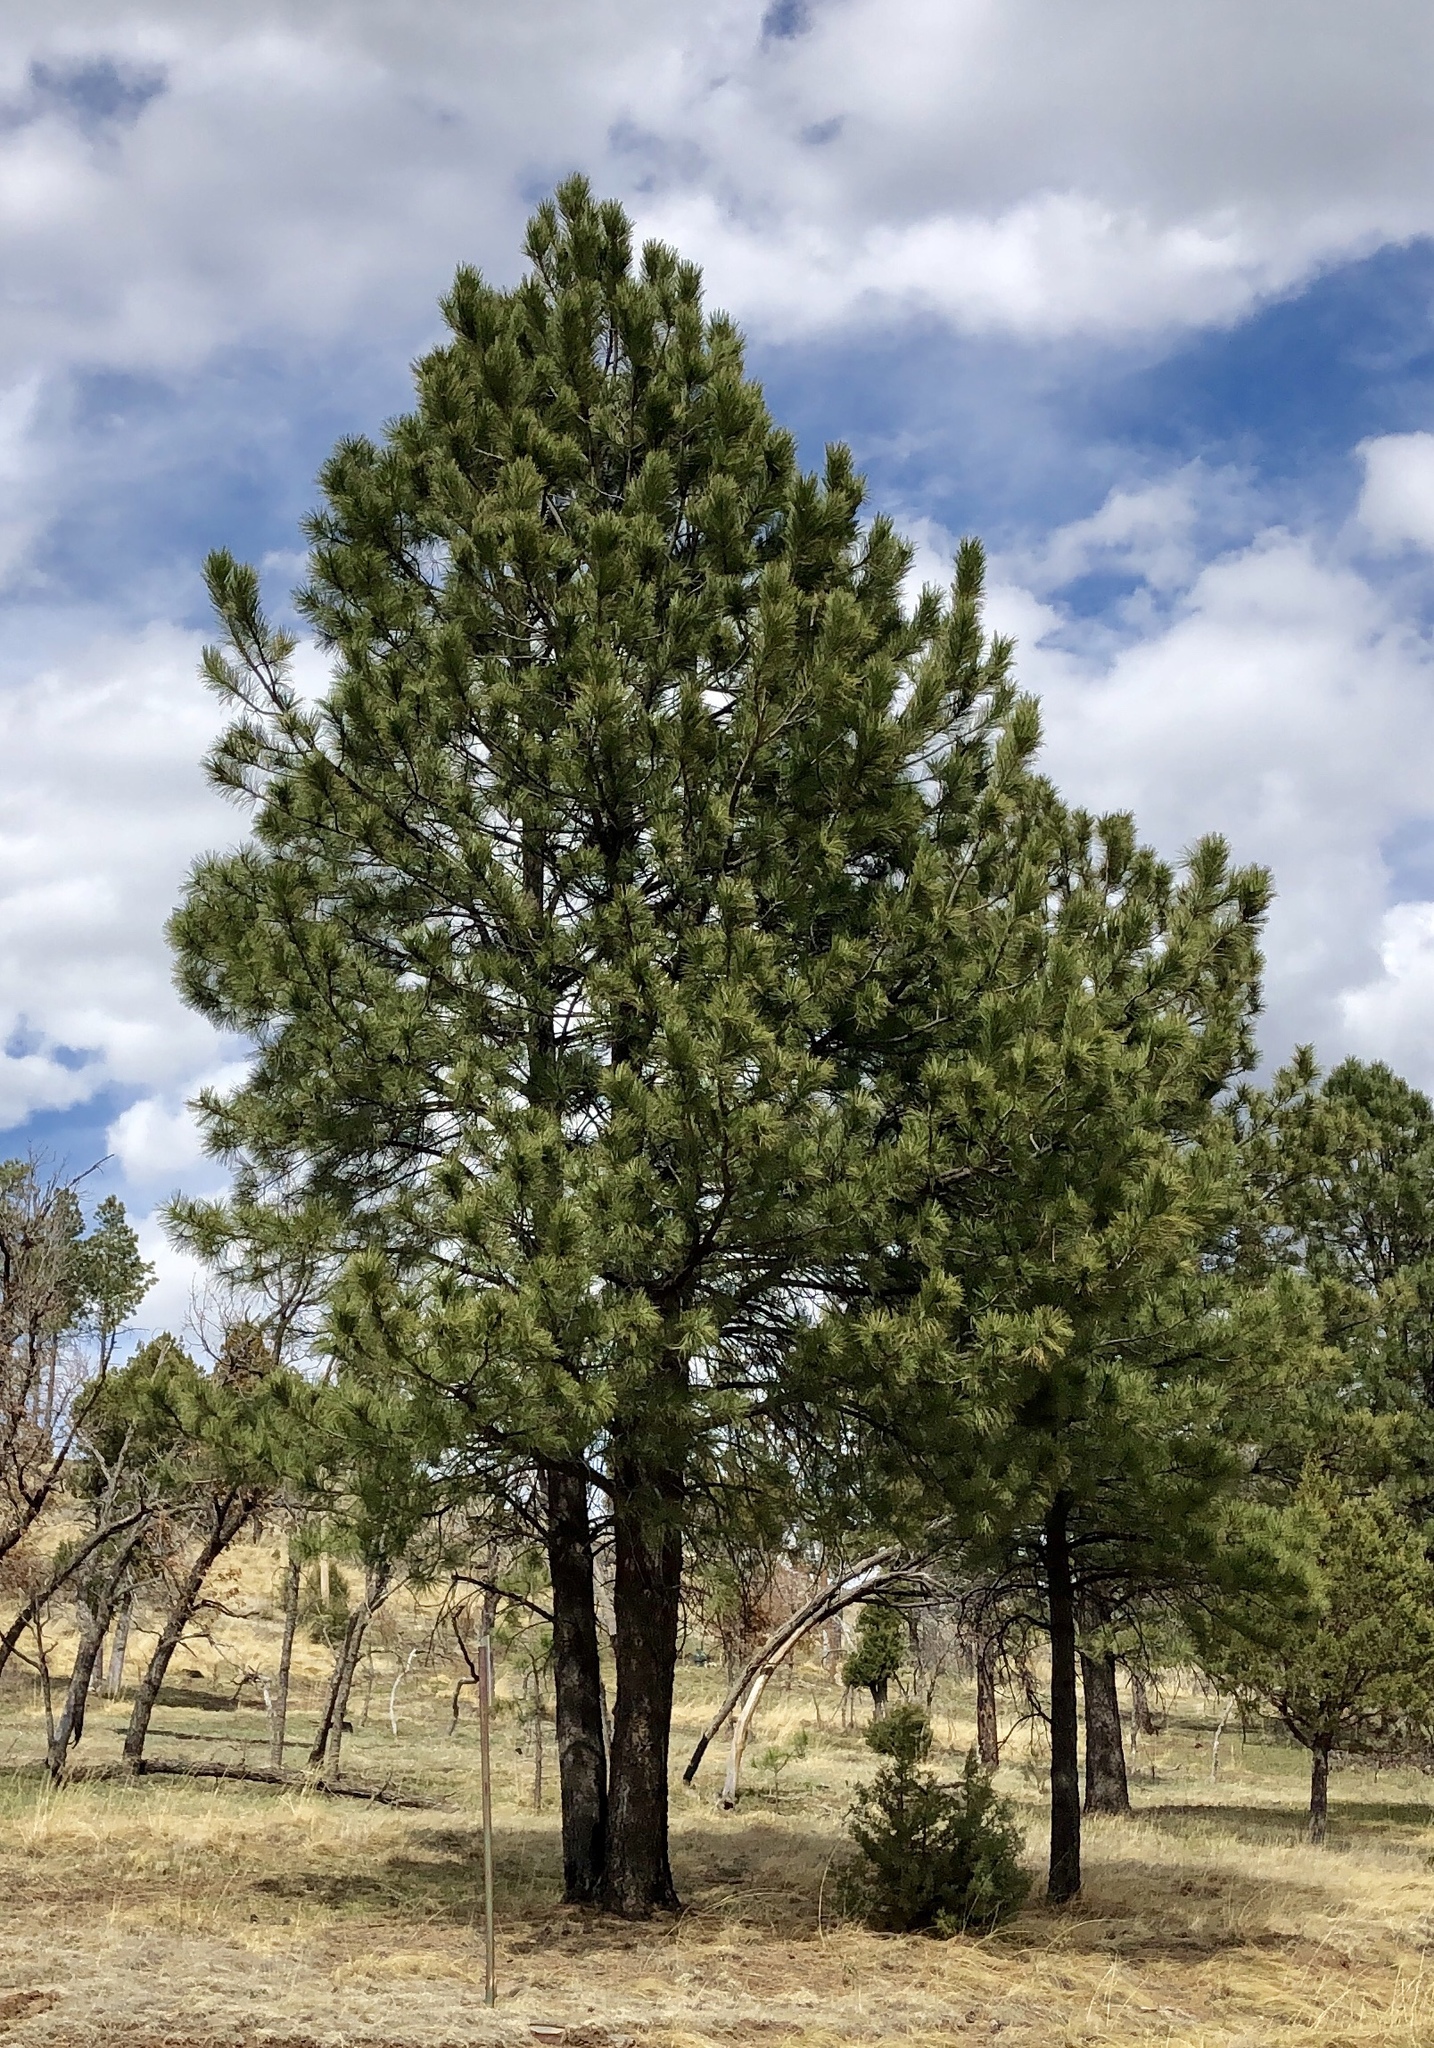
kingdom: Plantae
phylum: Tracheophyta
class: Pinopsida
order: Pinales
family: Pinaceae
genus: Pinus
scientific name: Pinus ponderosa
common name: Western yellow-pine
